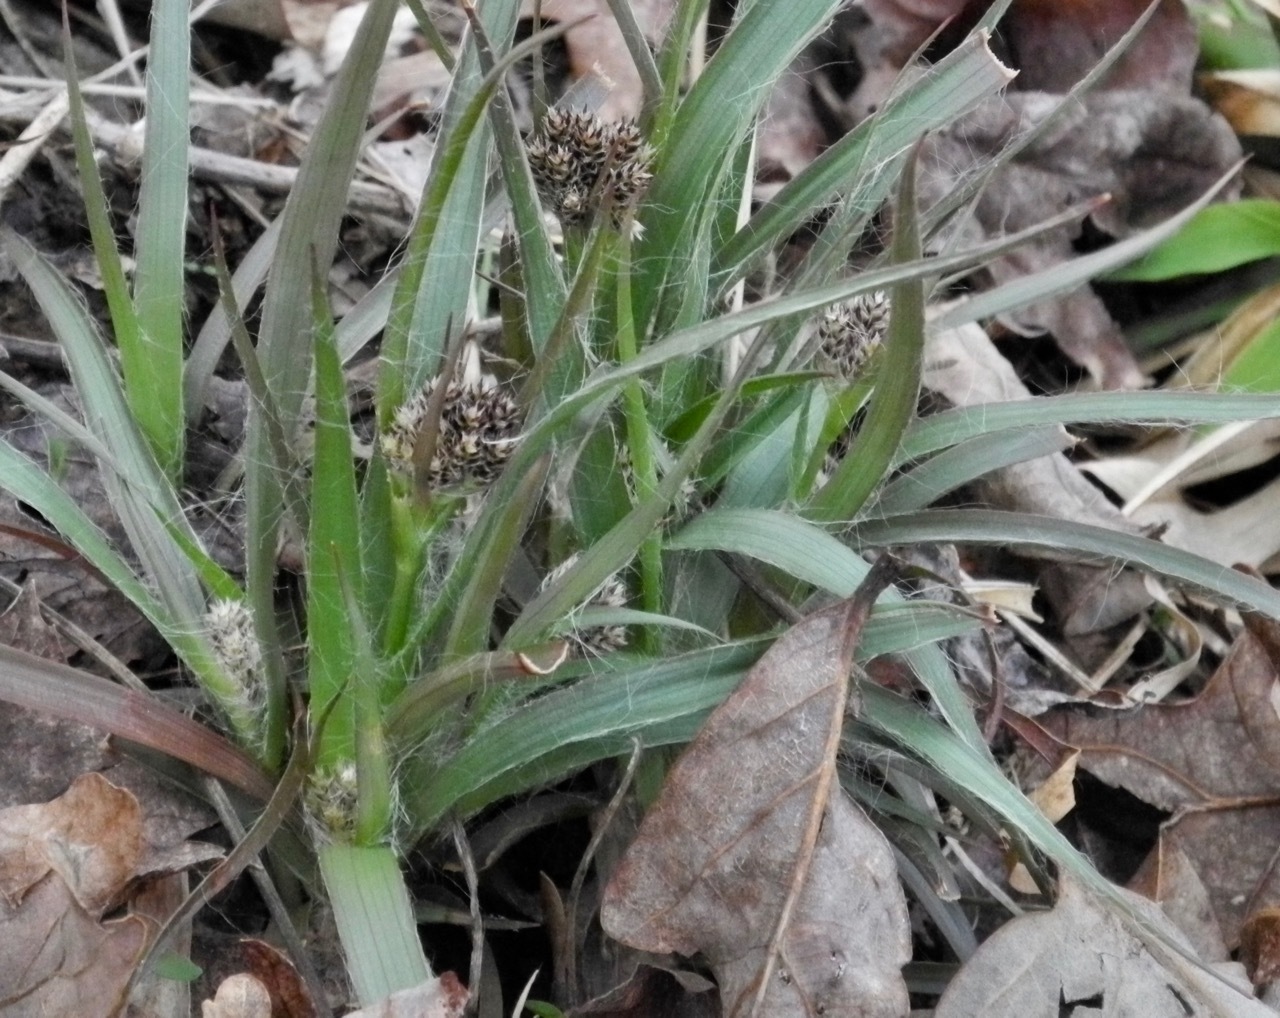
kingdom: Plantae
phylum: Tracheophyta
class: Liliopsida
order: Poales
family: Juncaceae
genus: Luzula
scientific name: Luzula echinata
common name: Hedgehog woodrush
